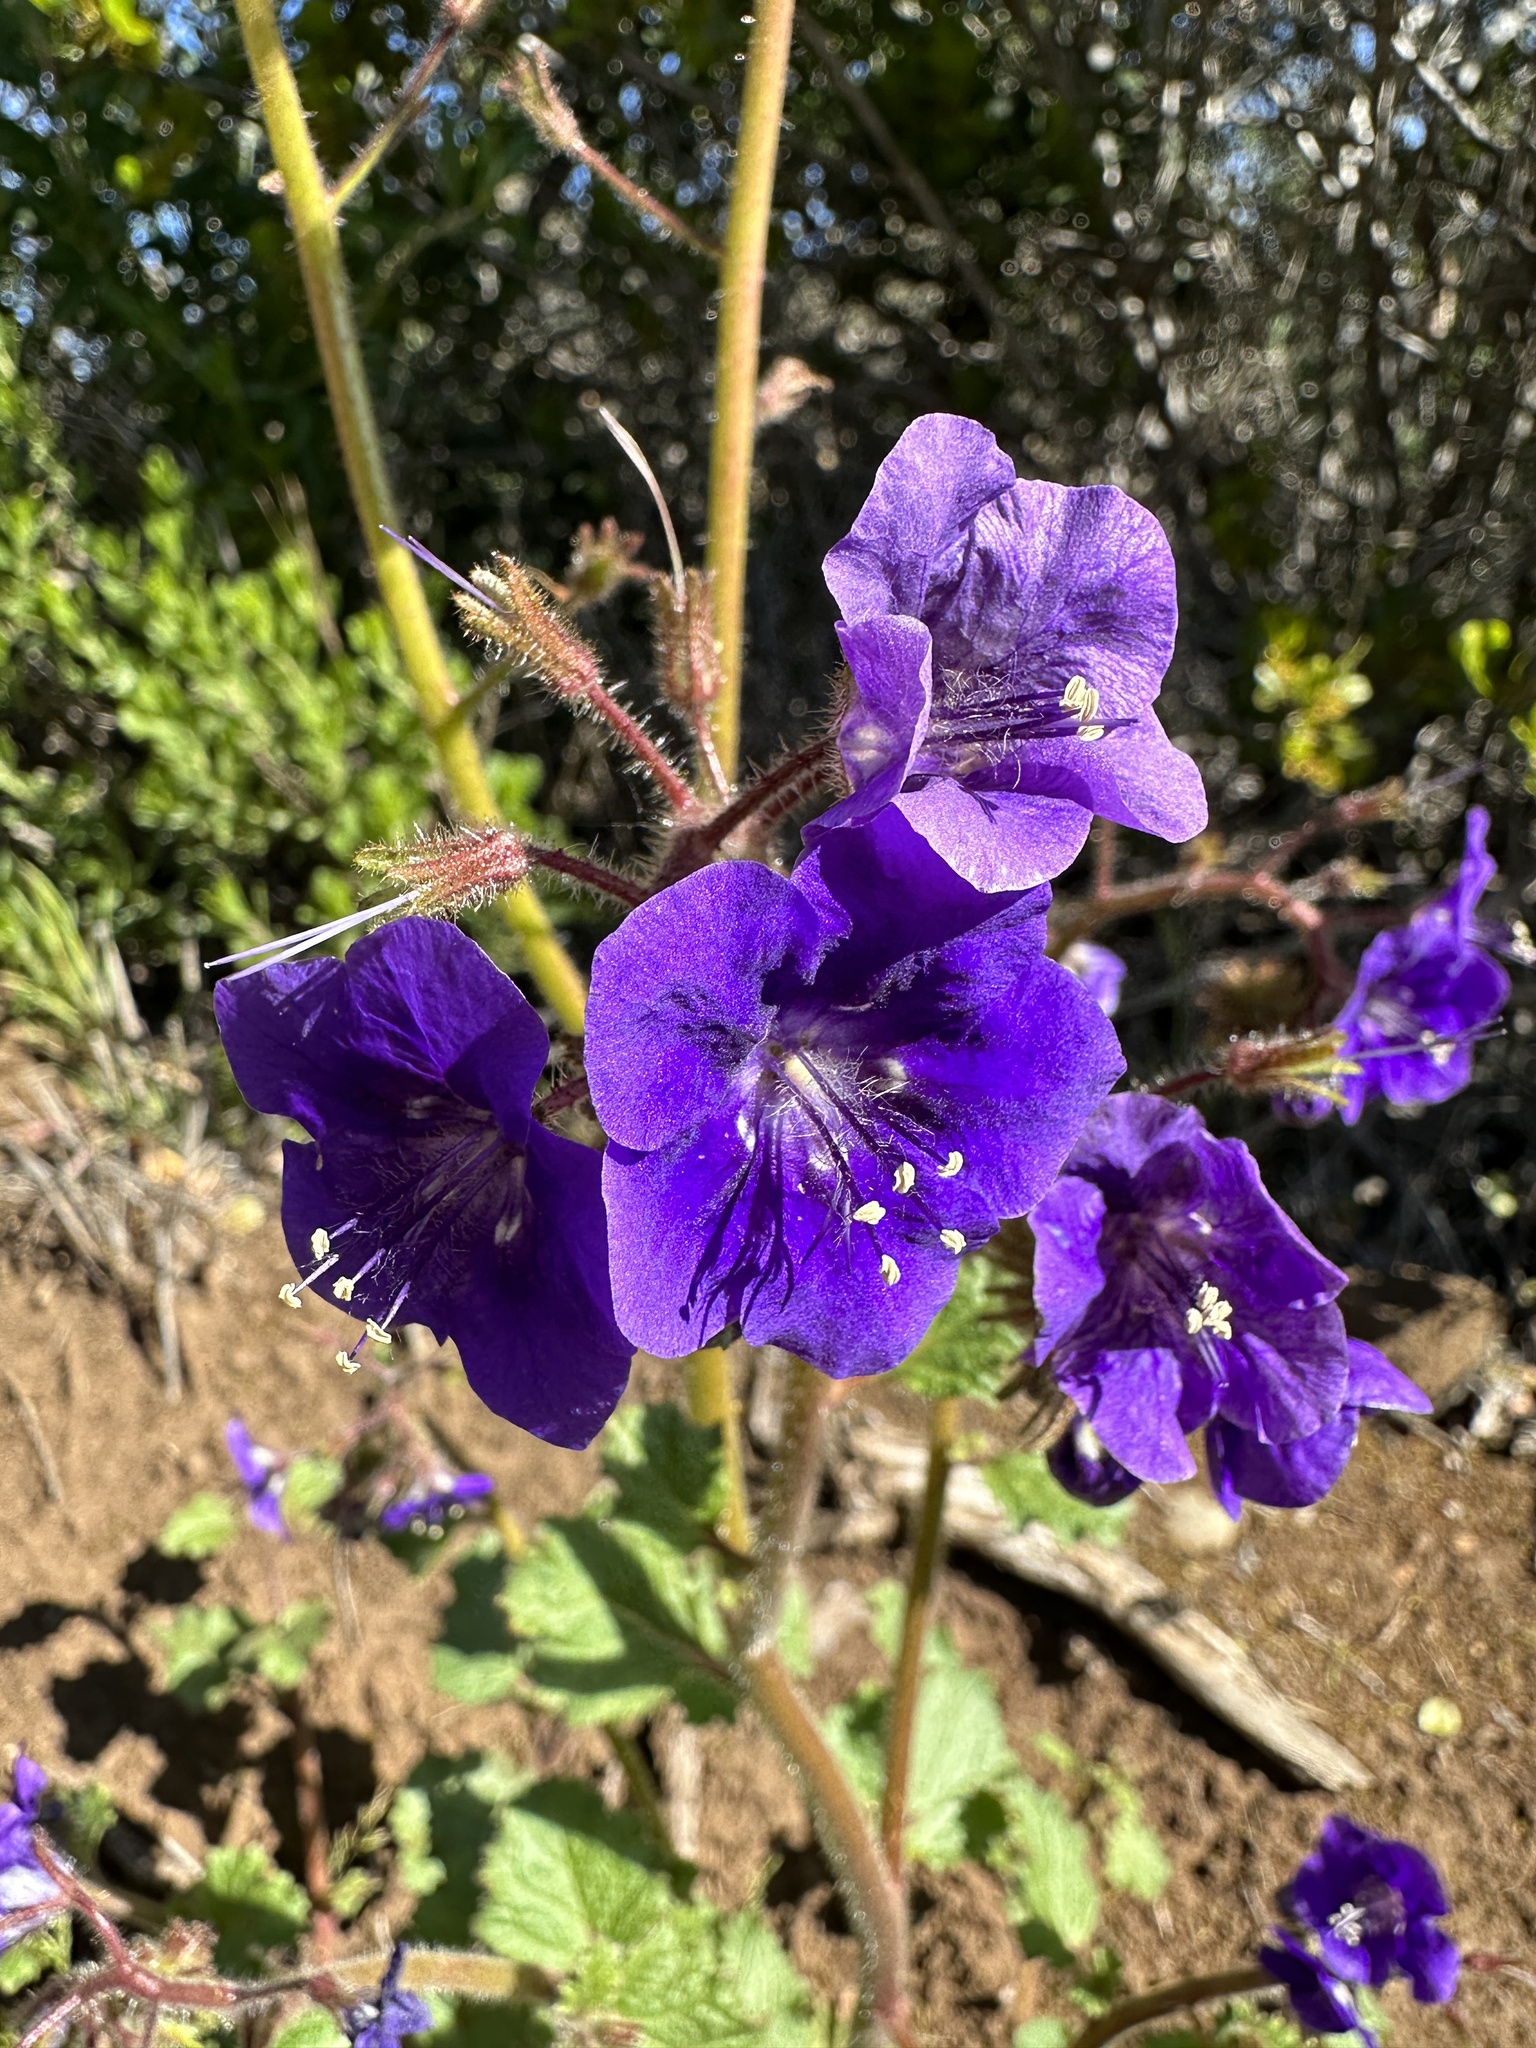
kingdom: Plantae
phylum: Tracheophyta
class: Magnoliopsida
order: Boraginales
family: Hydrophyllaceae
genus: Phacelia
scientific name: Phacelia parryi
